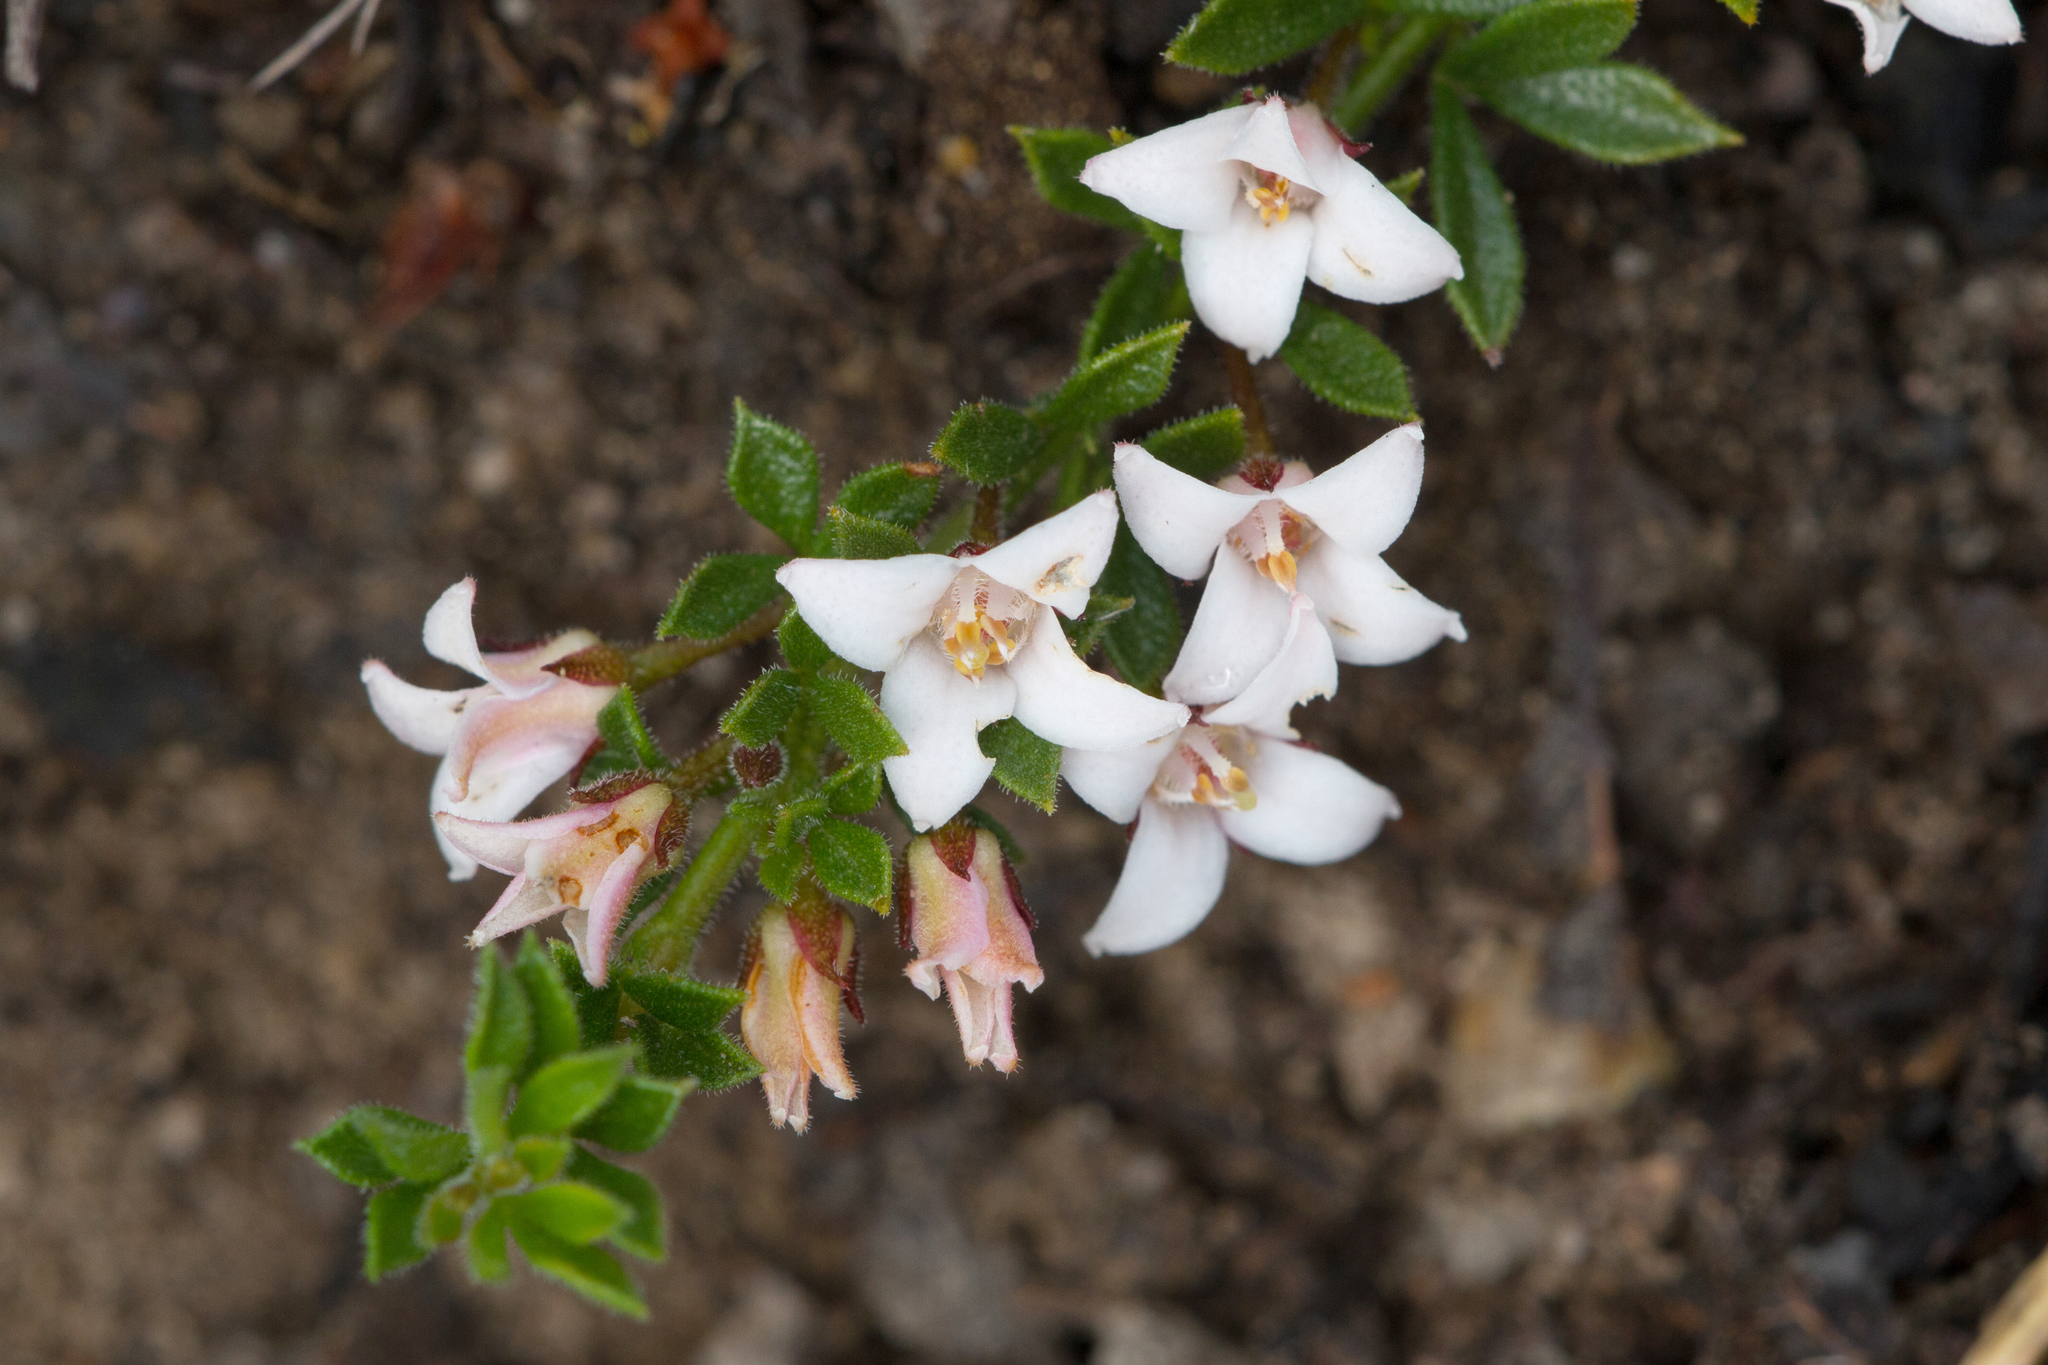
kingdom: Plantae
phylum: Tracheophyta
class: Magnoliopsida
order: Sapindales
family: Rutaceae
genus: Cyanothamnus
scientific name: Cyanothamnus nanus
